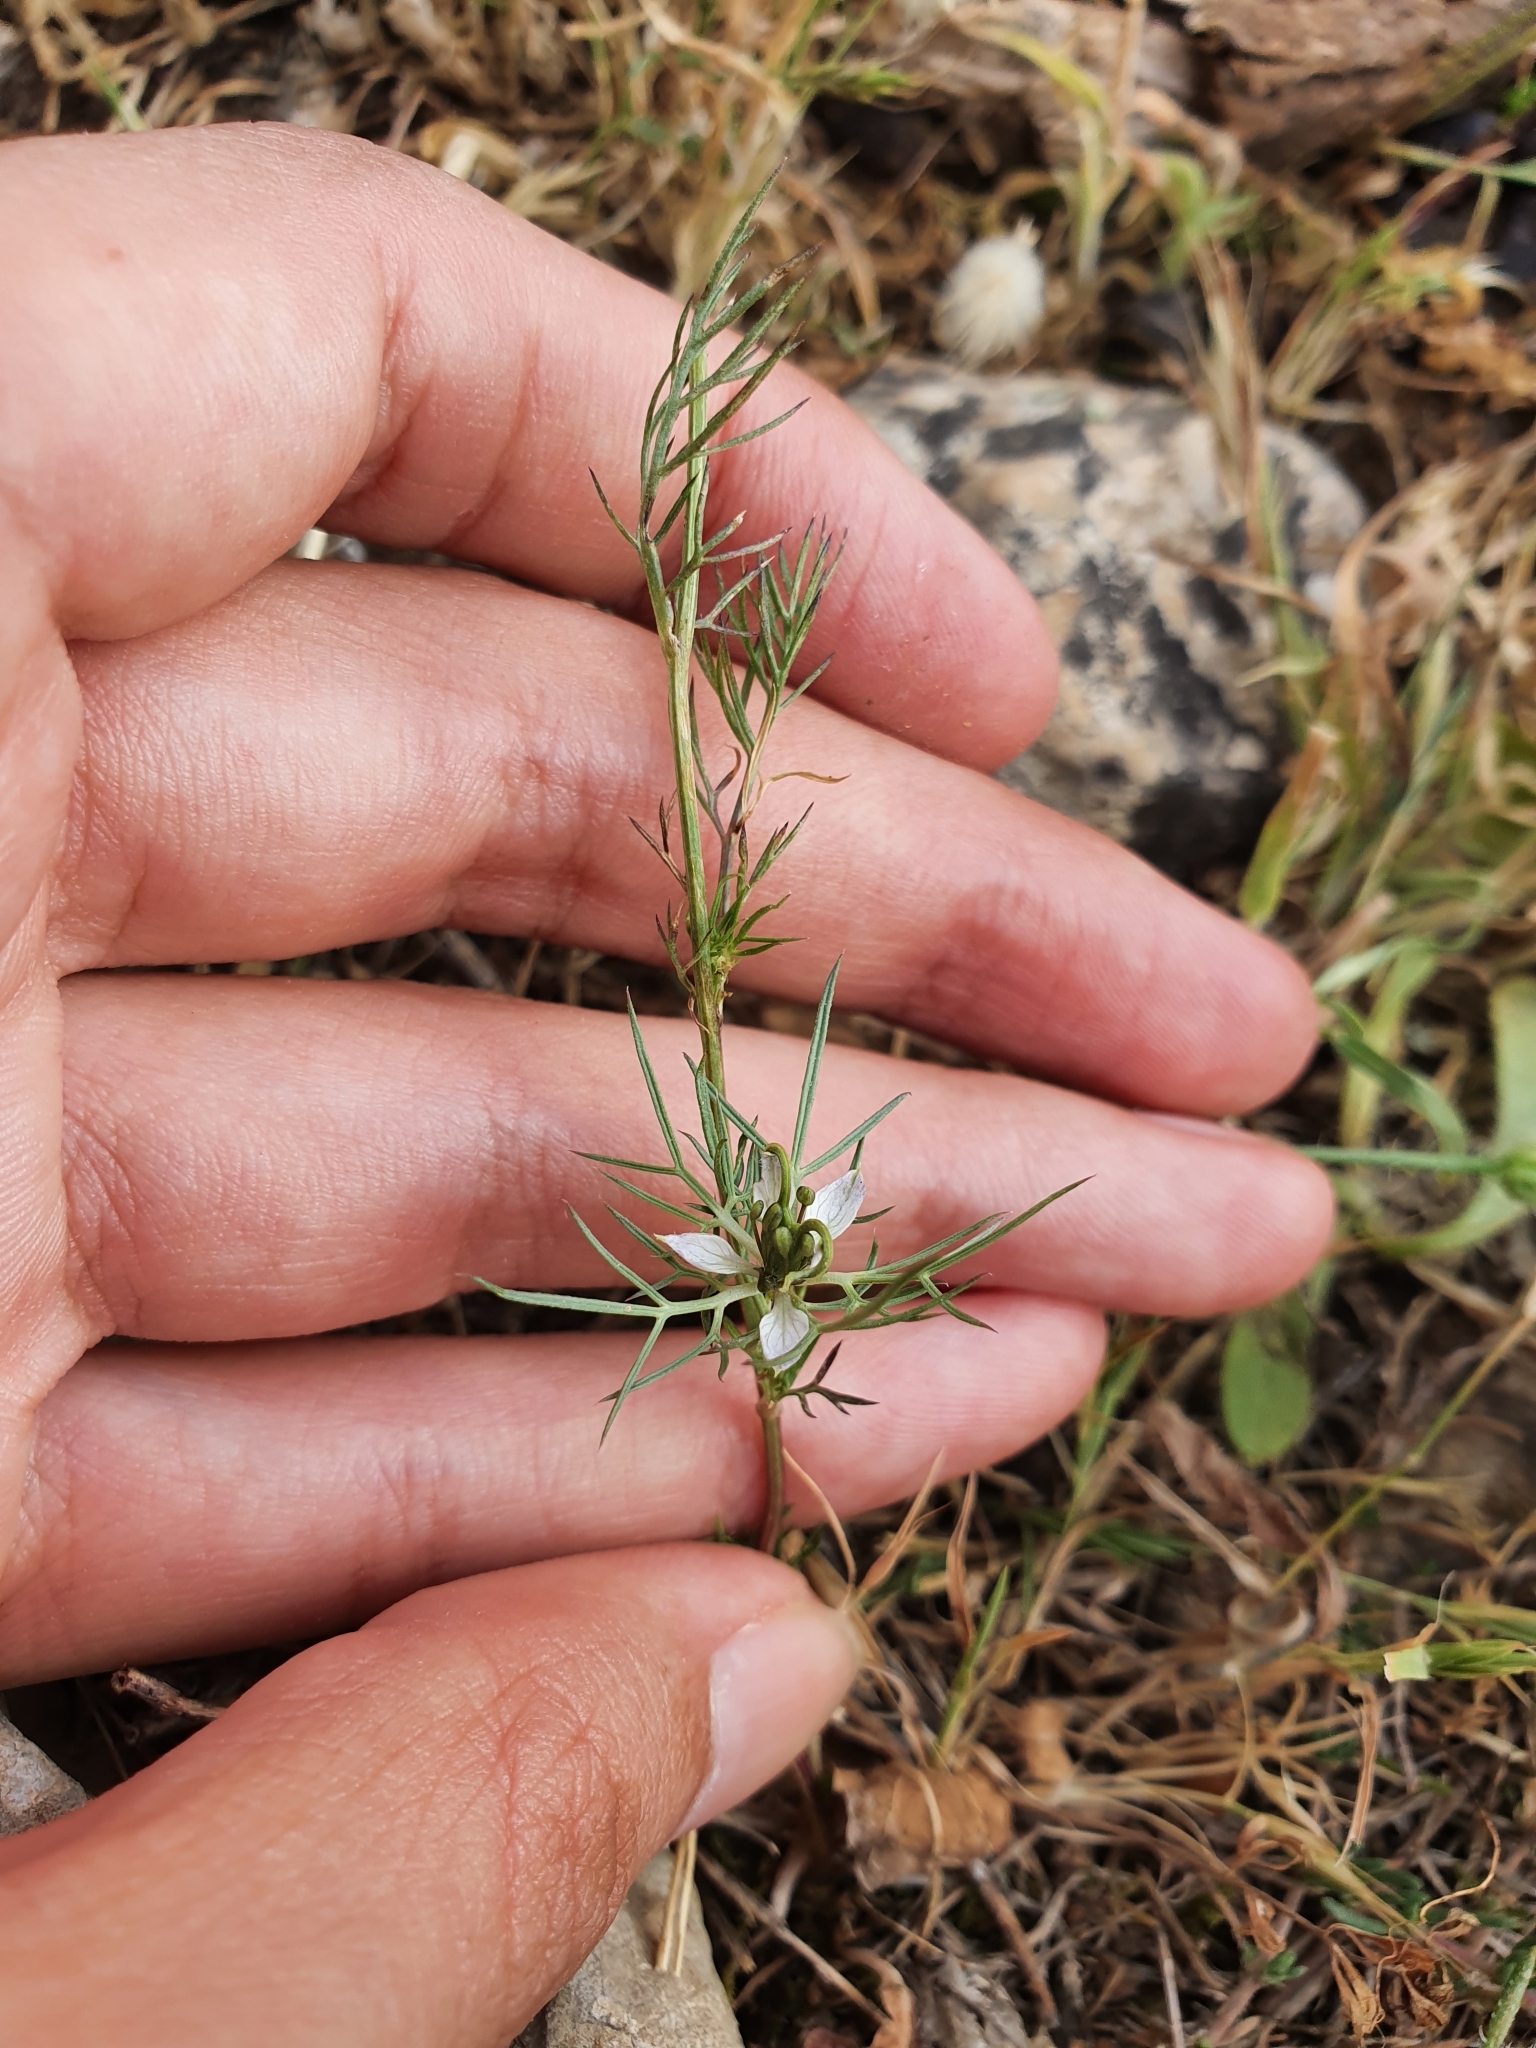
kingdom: Plantae
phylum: Tracheophyta
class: Magnoliopsida
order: Ranunculales
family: Ranunculaceae
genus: Nigella
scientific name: Nigella damascena
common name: Love-in-a-mist
